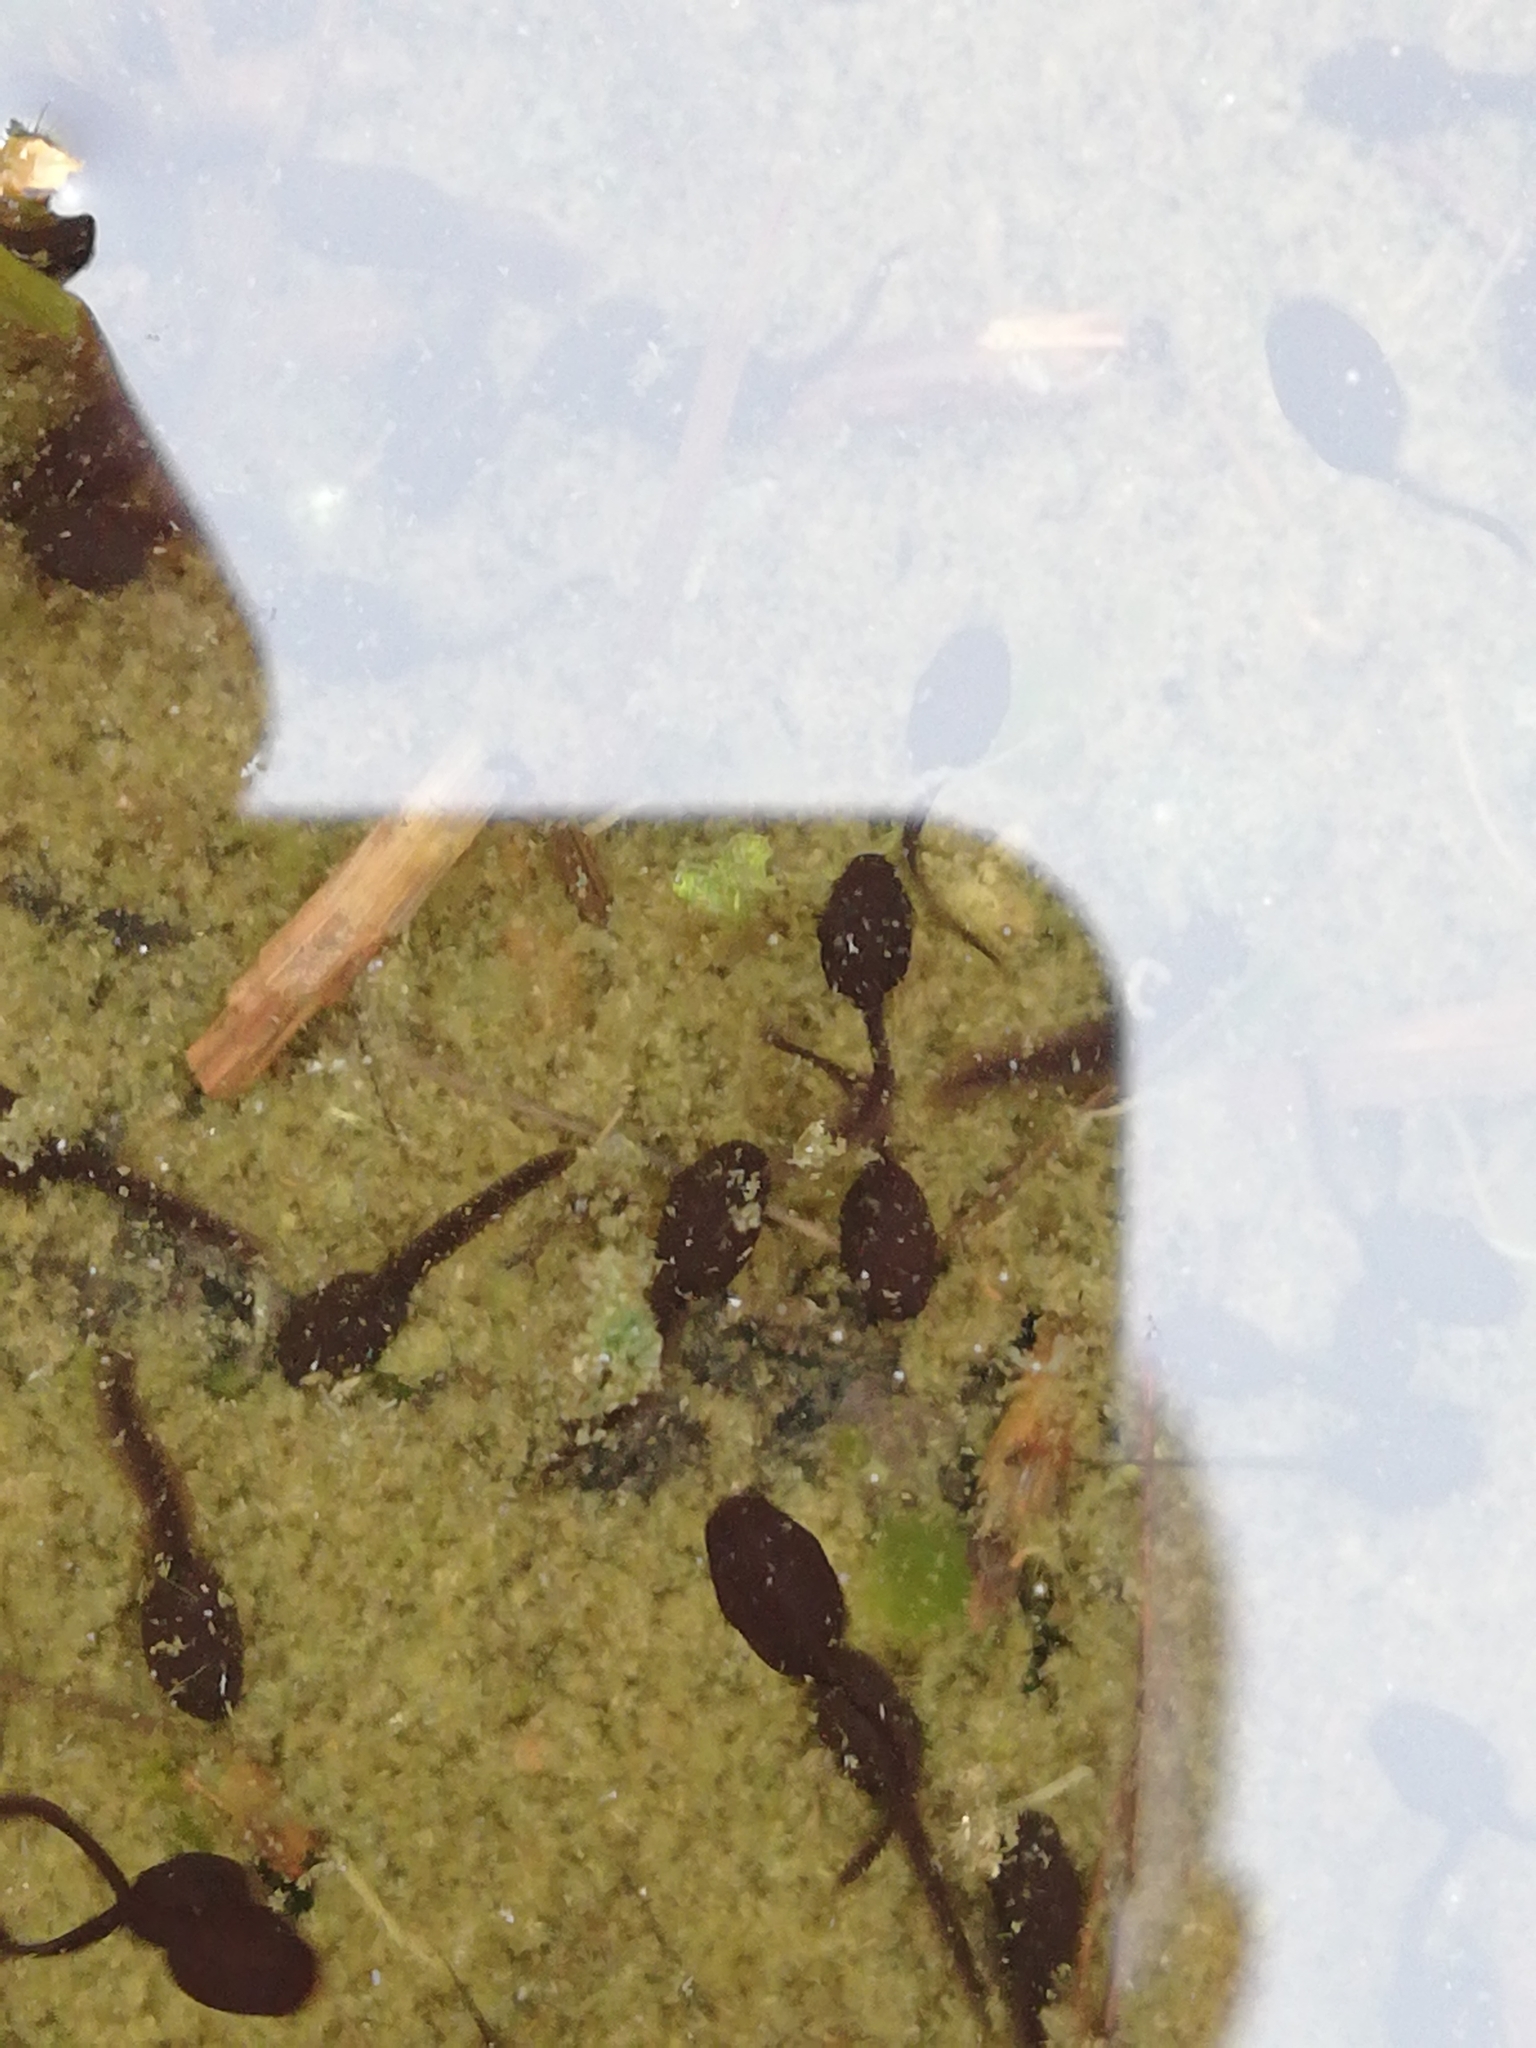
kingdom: Animalia
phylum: Chordata
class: Amphibia
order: Anura
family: Bufonidae
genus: Bufo
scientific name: Bufo bufo
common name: Common toad
